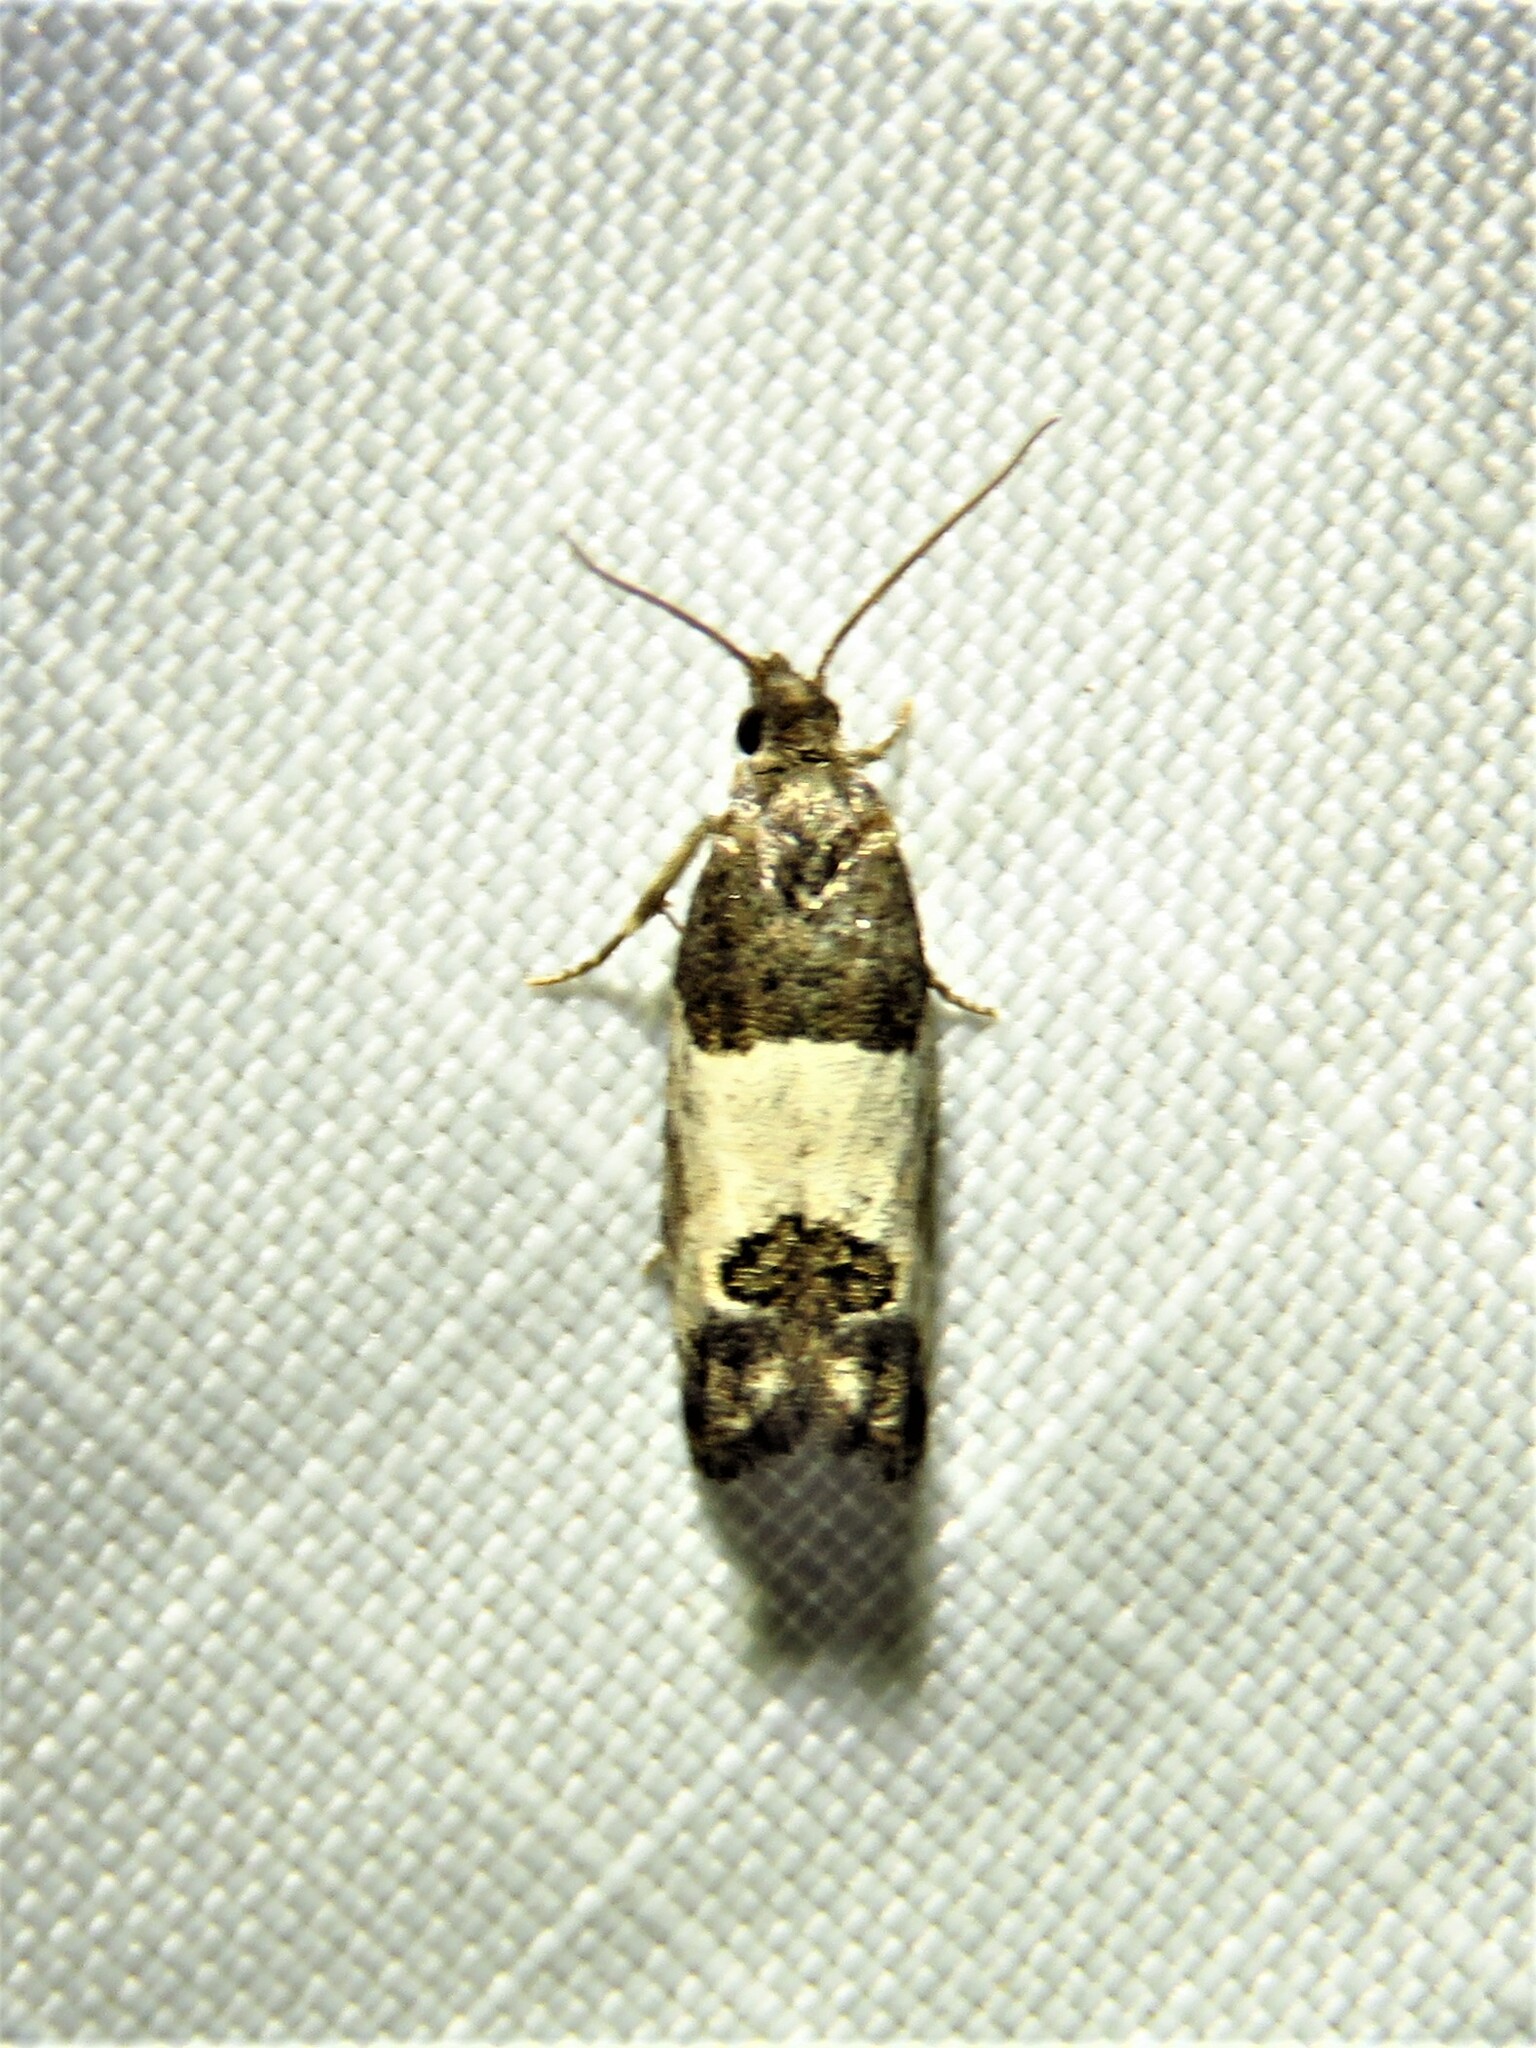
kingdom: Animalia
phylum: Arthropoda
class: Insecta
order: Lepidoptera
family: Tortricidae
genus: Spilonota
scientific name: Spilonota ocellana
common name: Bud moth
